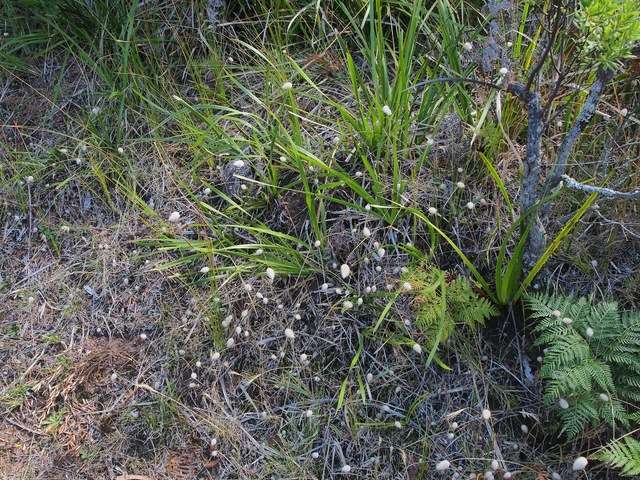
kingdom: Plantae
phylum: Tracheophyta
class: Liliopsida
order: Poales
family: Poaceae
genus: Lagurus
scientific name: Lagurus ovatus
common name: Hare's-tail
